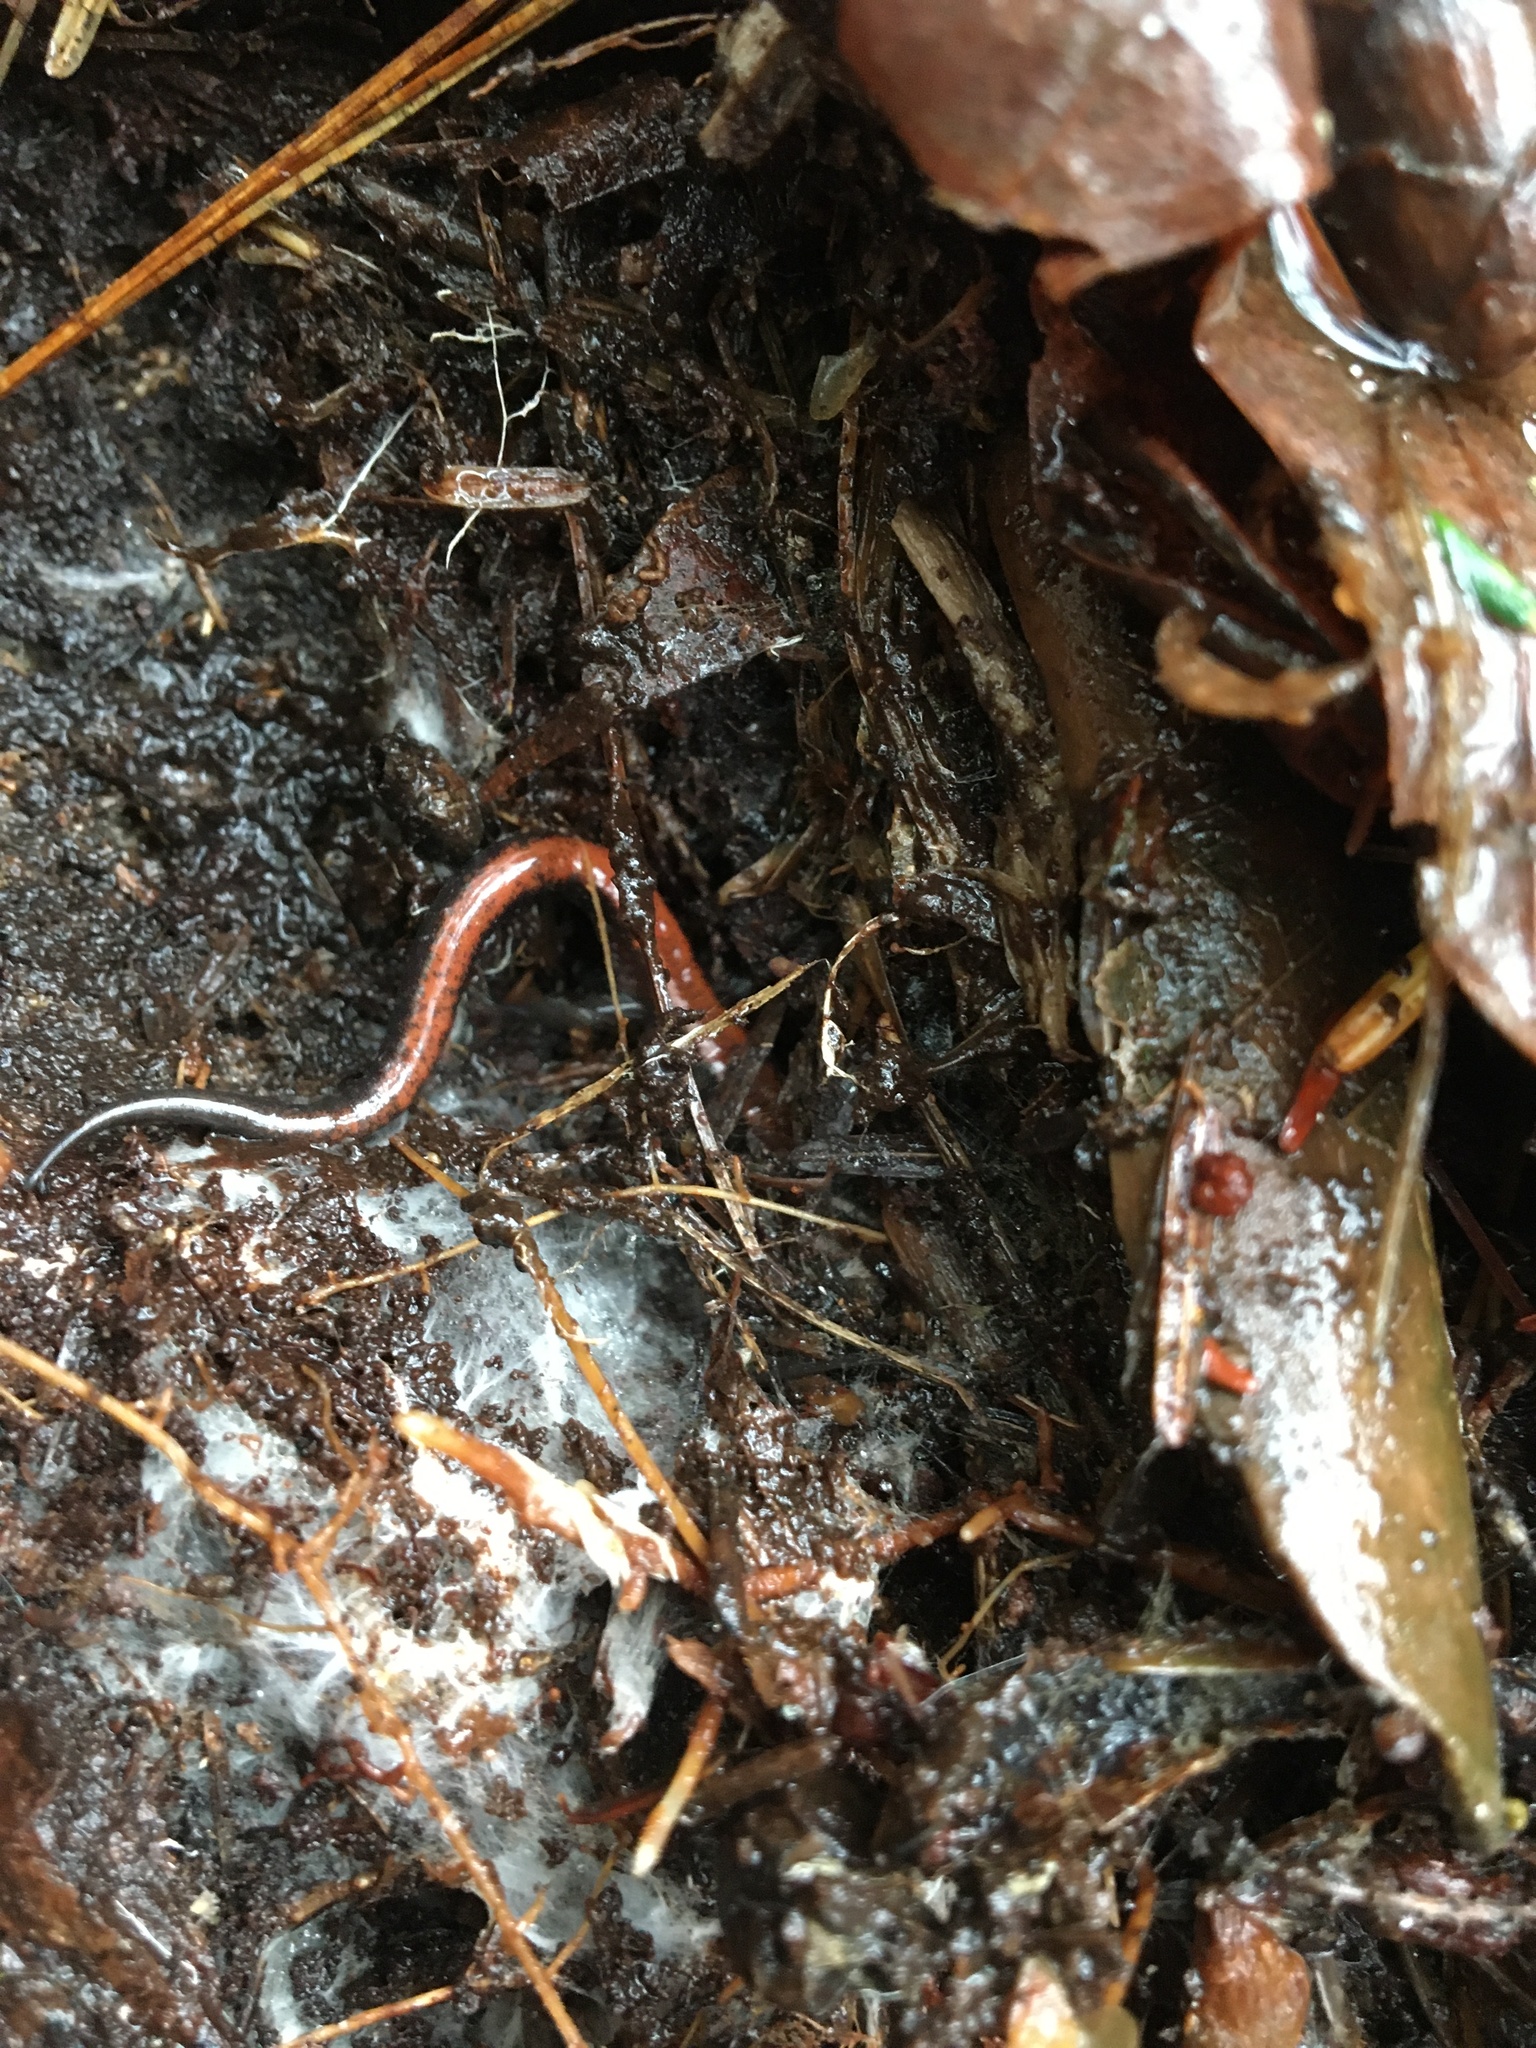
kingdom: Animalia
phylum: Chordata
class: Amphibia
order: Caudata
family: Plethodontidae
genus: Plethodon
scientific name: Plethodon cinereus
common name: Redback salamander
